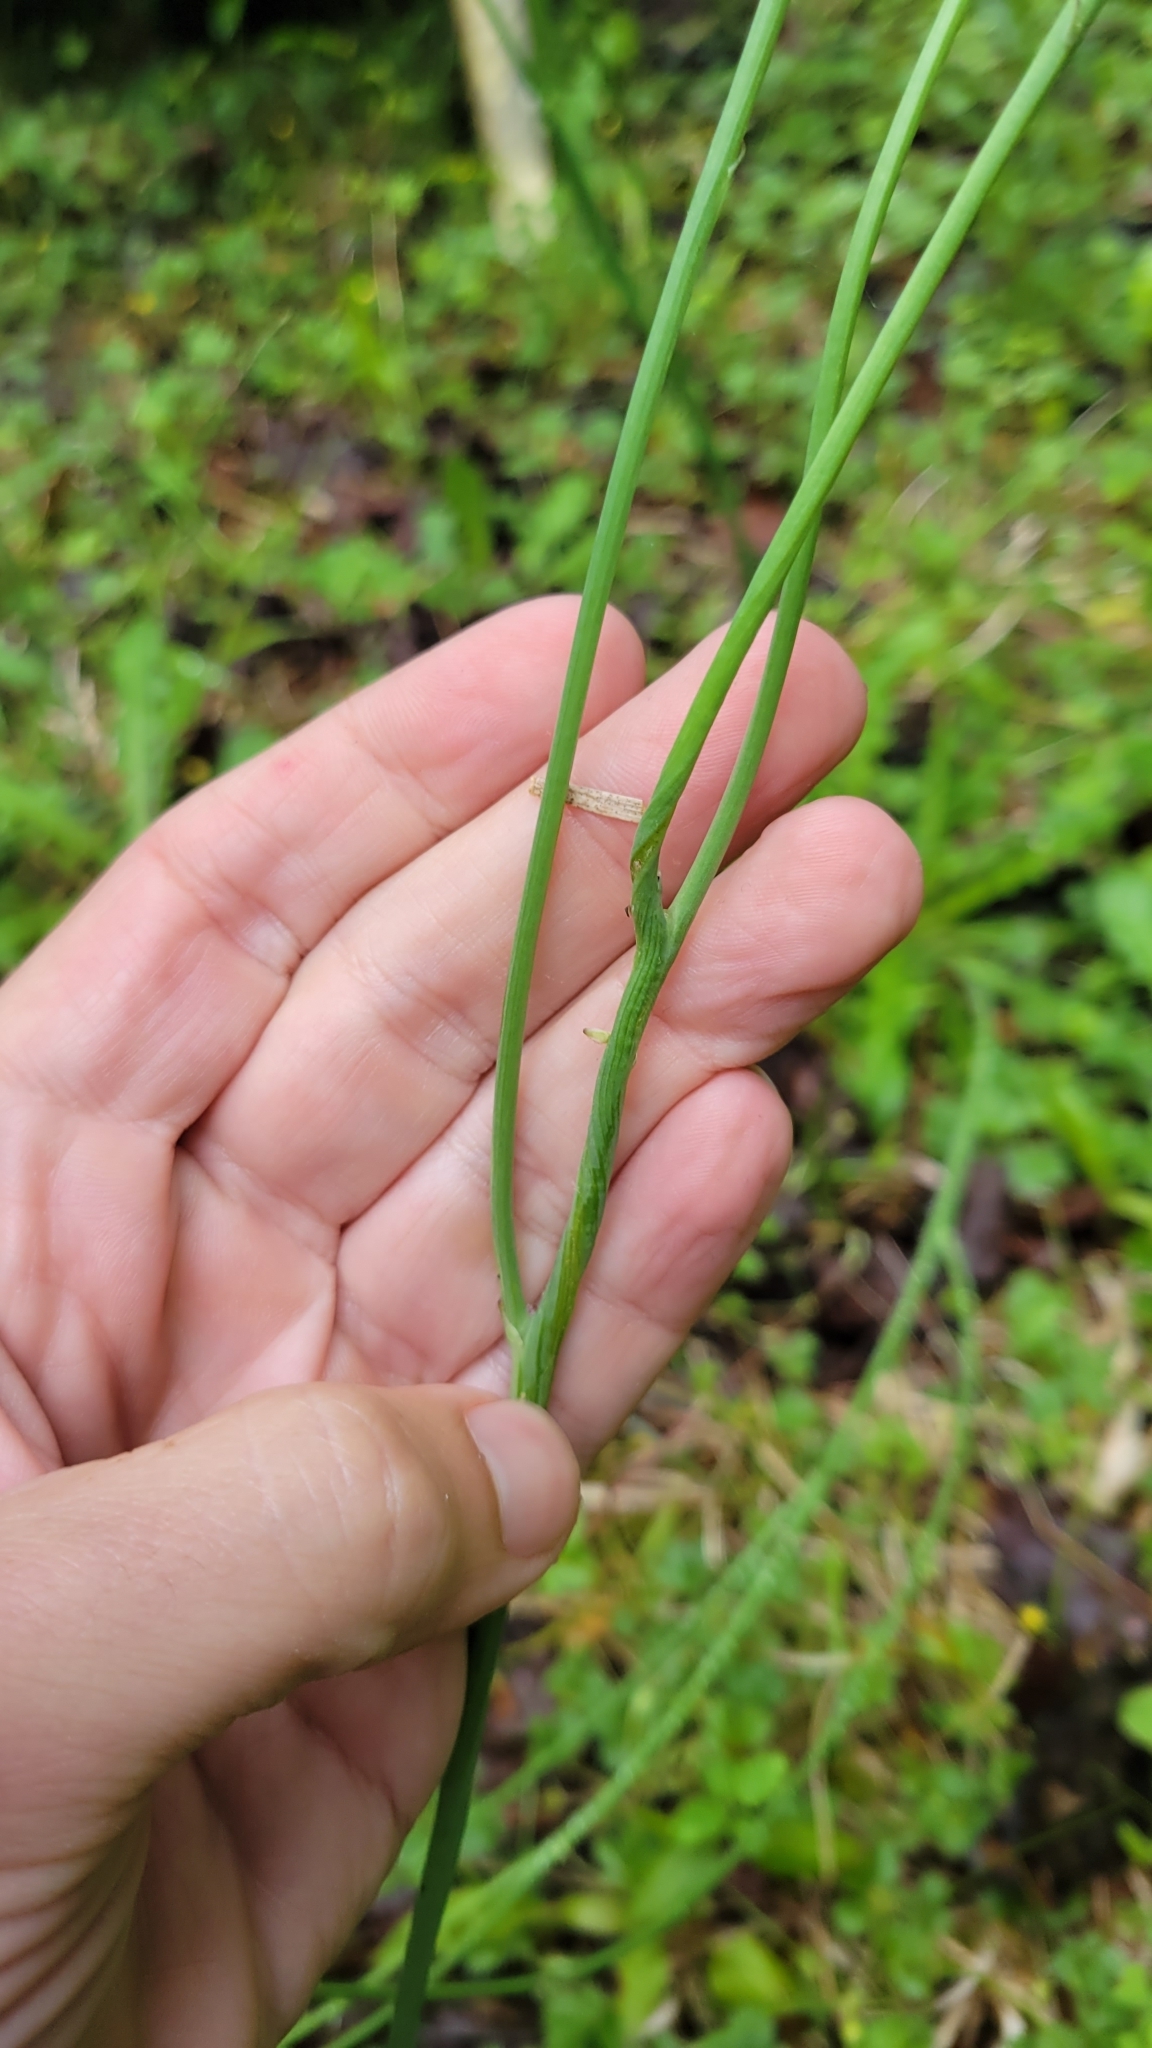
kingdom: Plantae
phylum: Tracheophyta
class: Magnoliopsida
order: Asterales
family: Asteraceae
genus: Hypochaeris
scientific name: Hypochaeris radicata
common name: Flatweed
